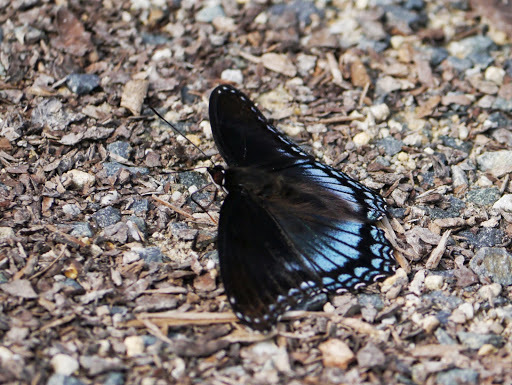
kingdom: Animalia
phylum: Arthropoda
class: Insecta
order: Lepidoptera
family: Nymphalidae
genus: Limenitis
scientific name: Limenitis astyanax
